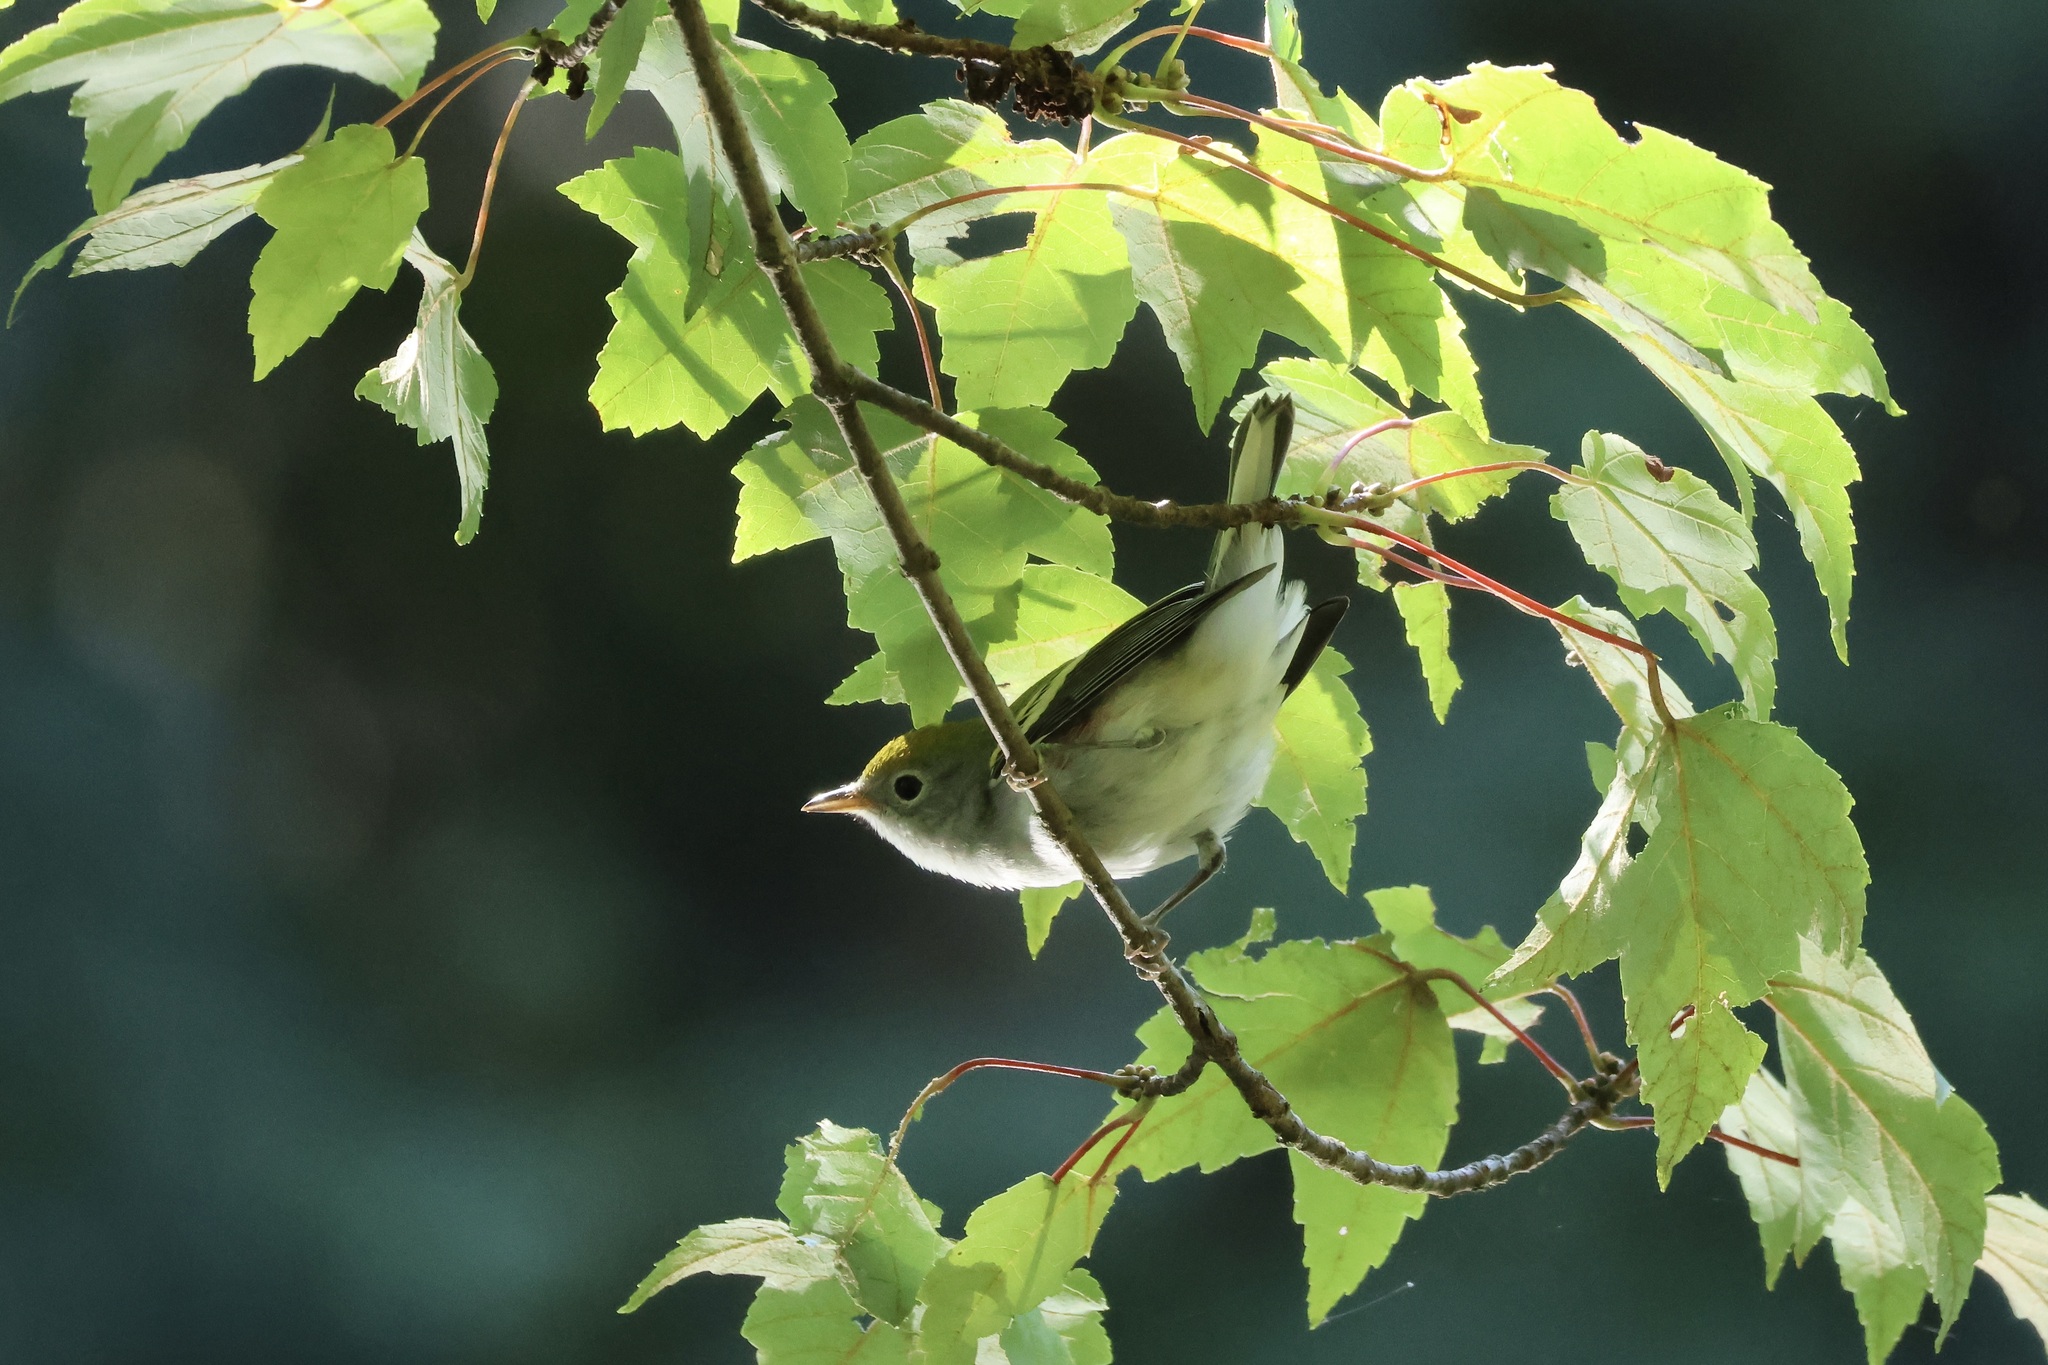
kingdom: Animalia
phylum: Chordata
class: Aves
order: Passeriformes
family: Parulidae
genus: Setophaga
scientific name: Setophaga pensylvanica
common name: Chestnut-sided warbler
